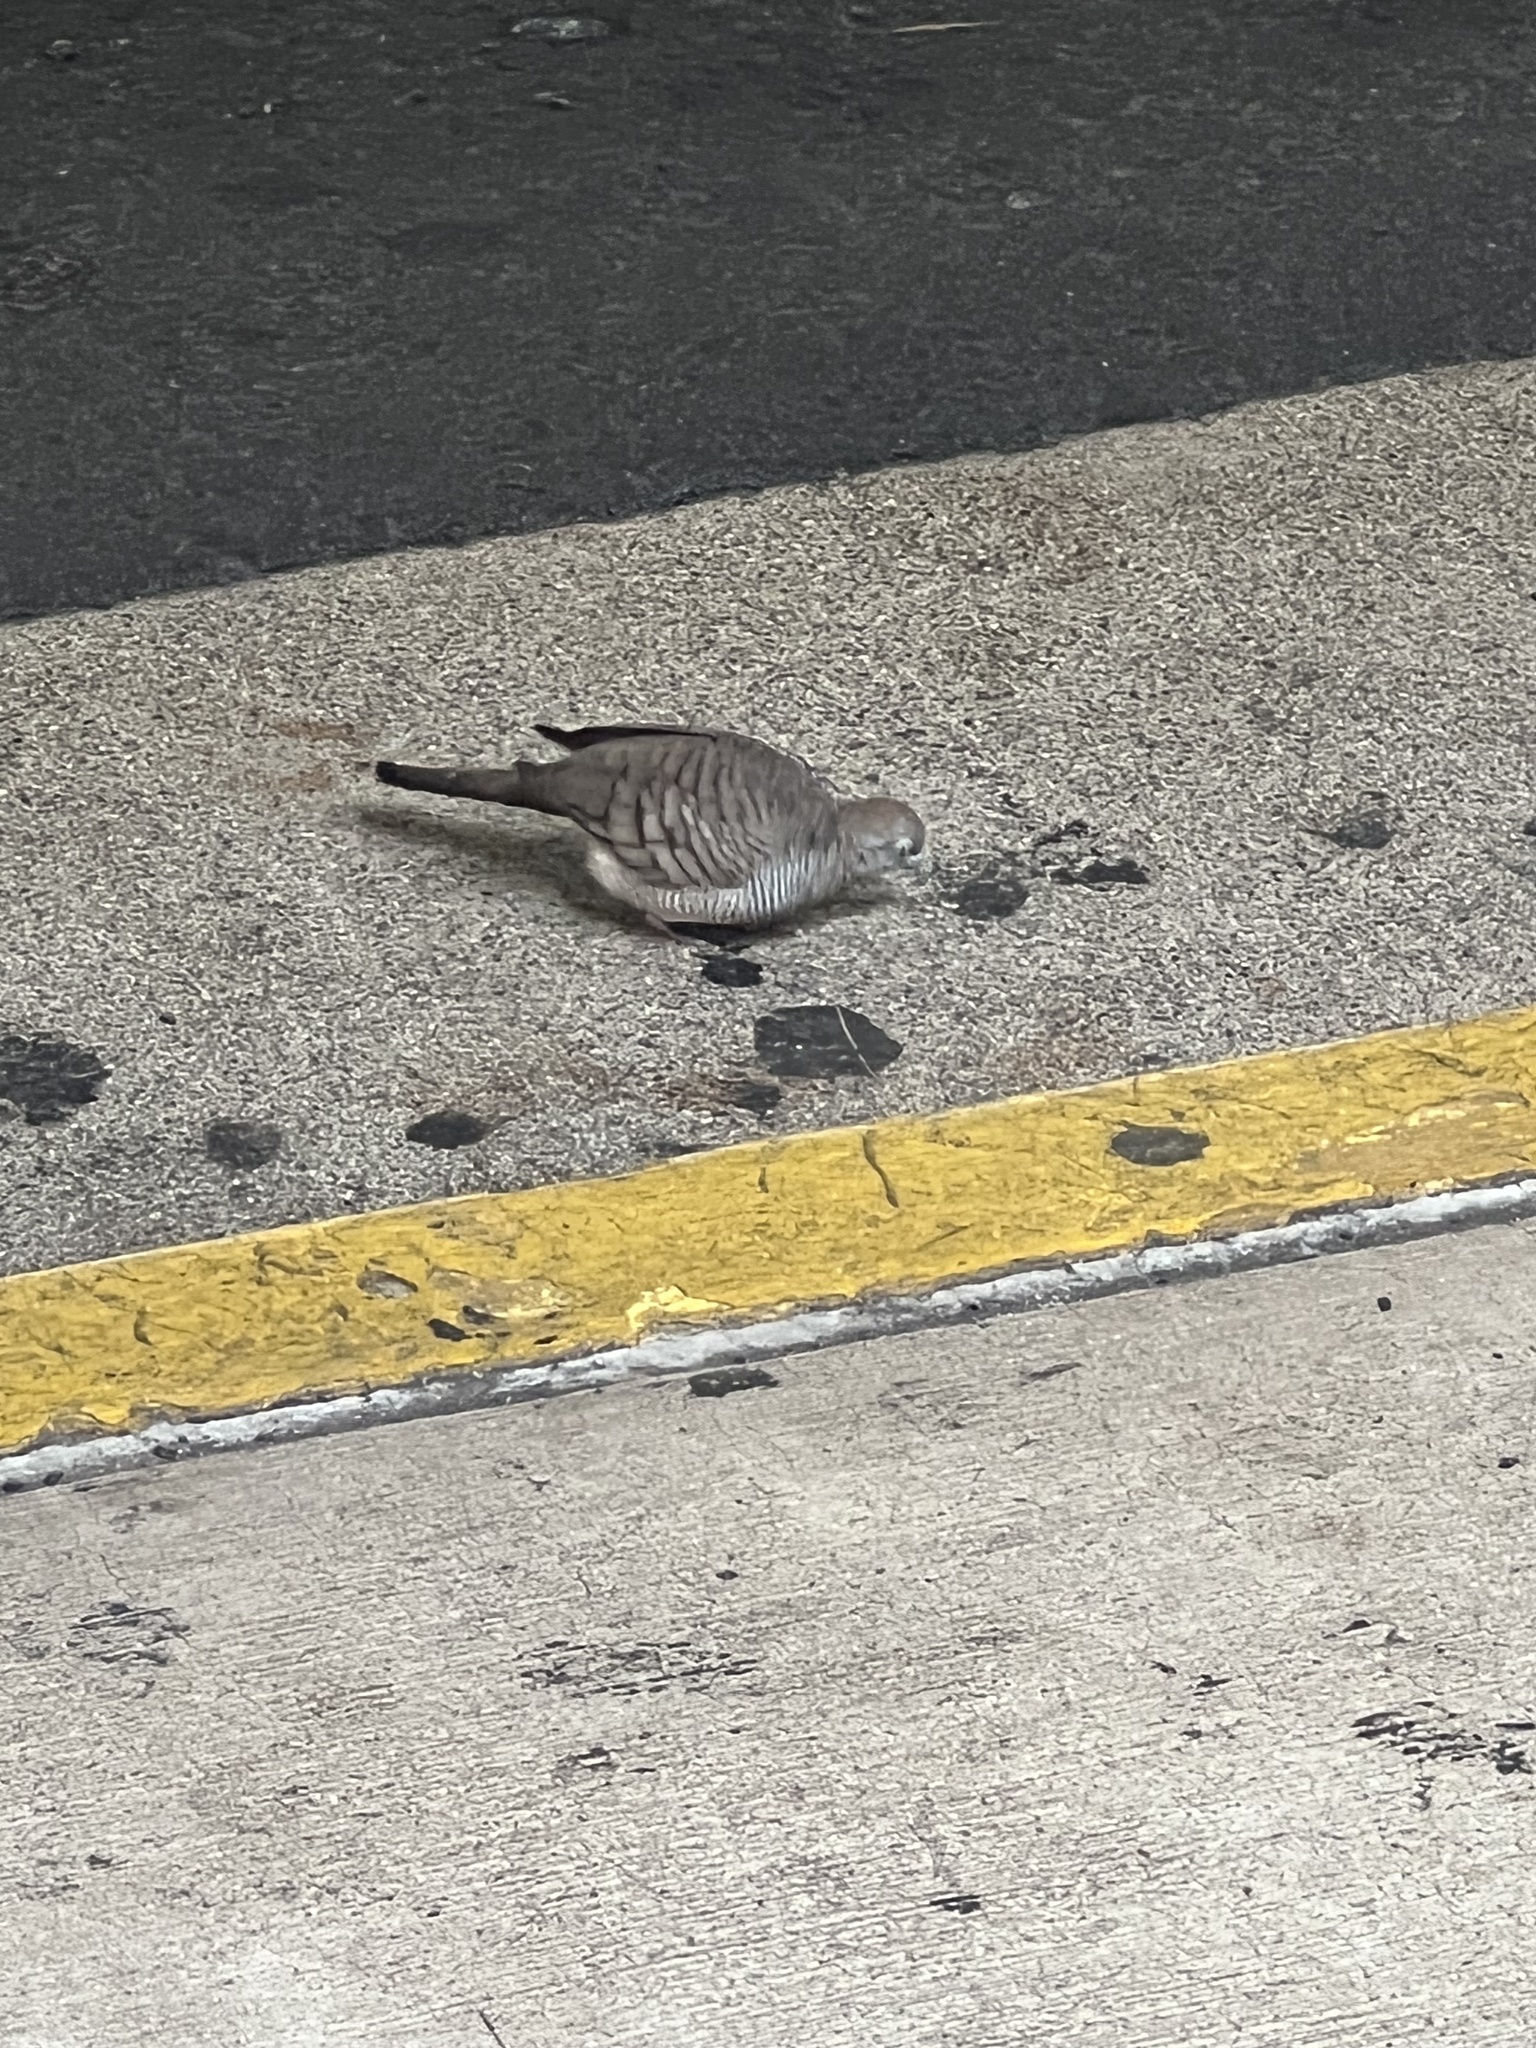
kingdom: Animalia
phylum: Chordata
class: Aves
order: Columbiformes
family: Columbidae
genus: Geopelia
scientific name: Geopelia striata
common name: Zebra dove
